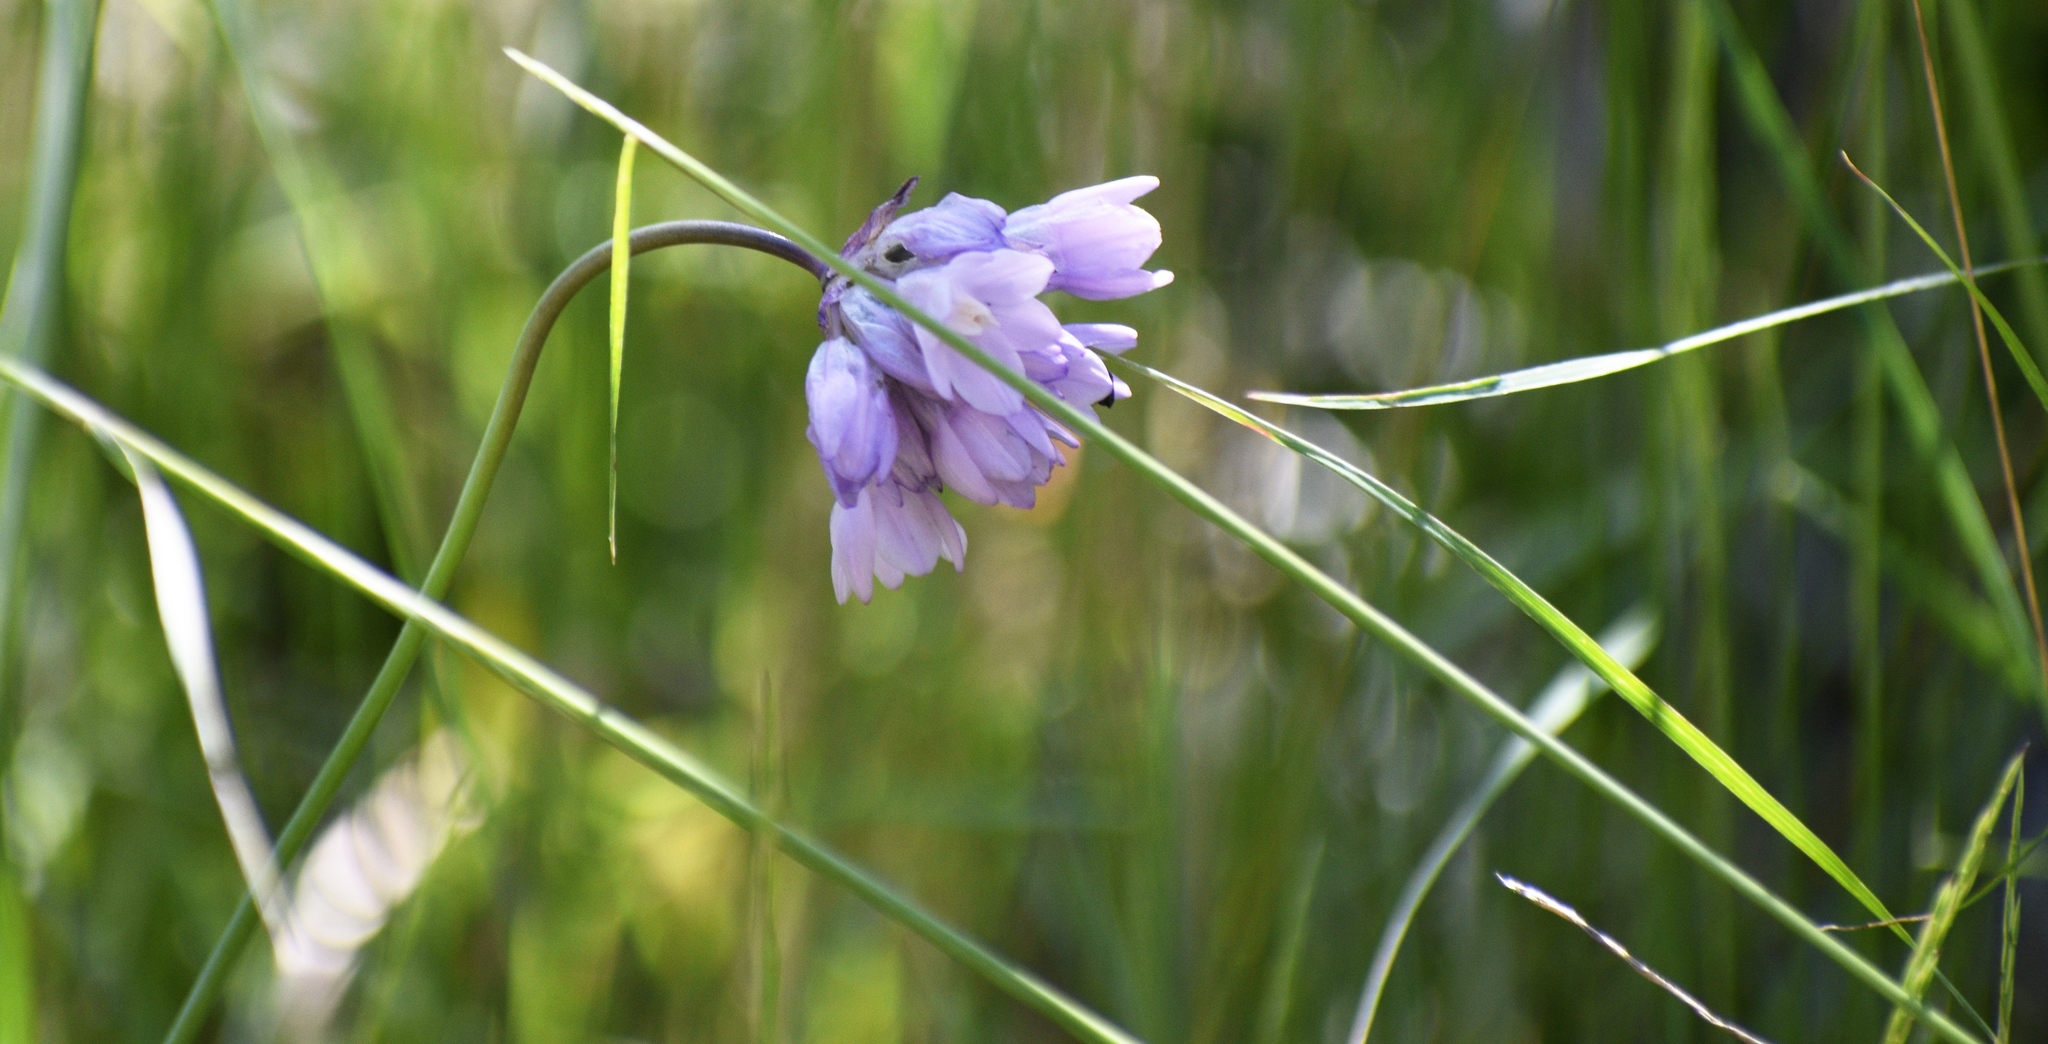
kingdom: Plantae
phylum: Tracheophyta
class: Liliopsida
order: Asparagales
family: Asparagaceae
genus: Dipterostemon
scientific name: Dipterostemon capitatus
